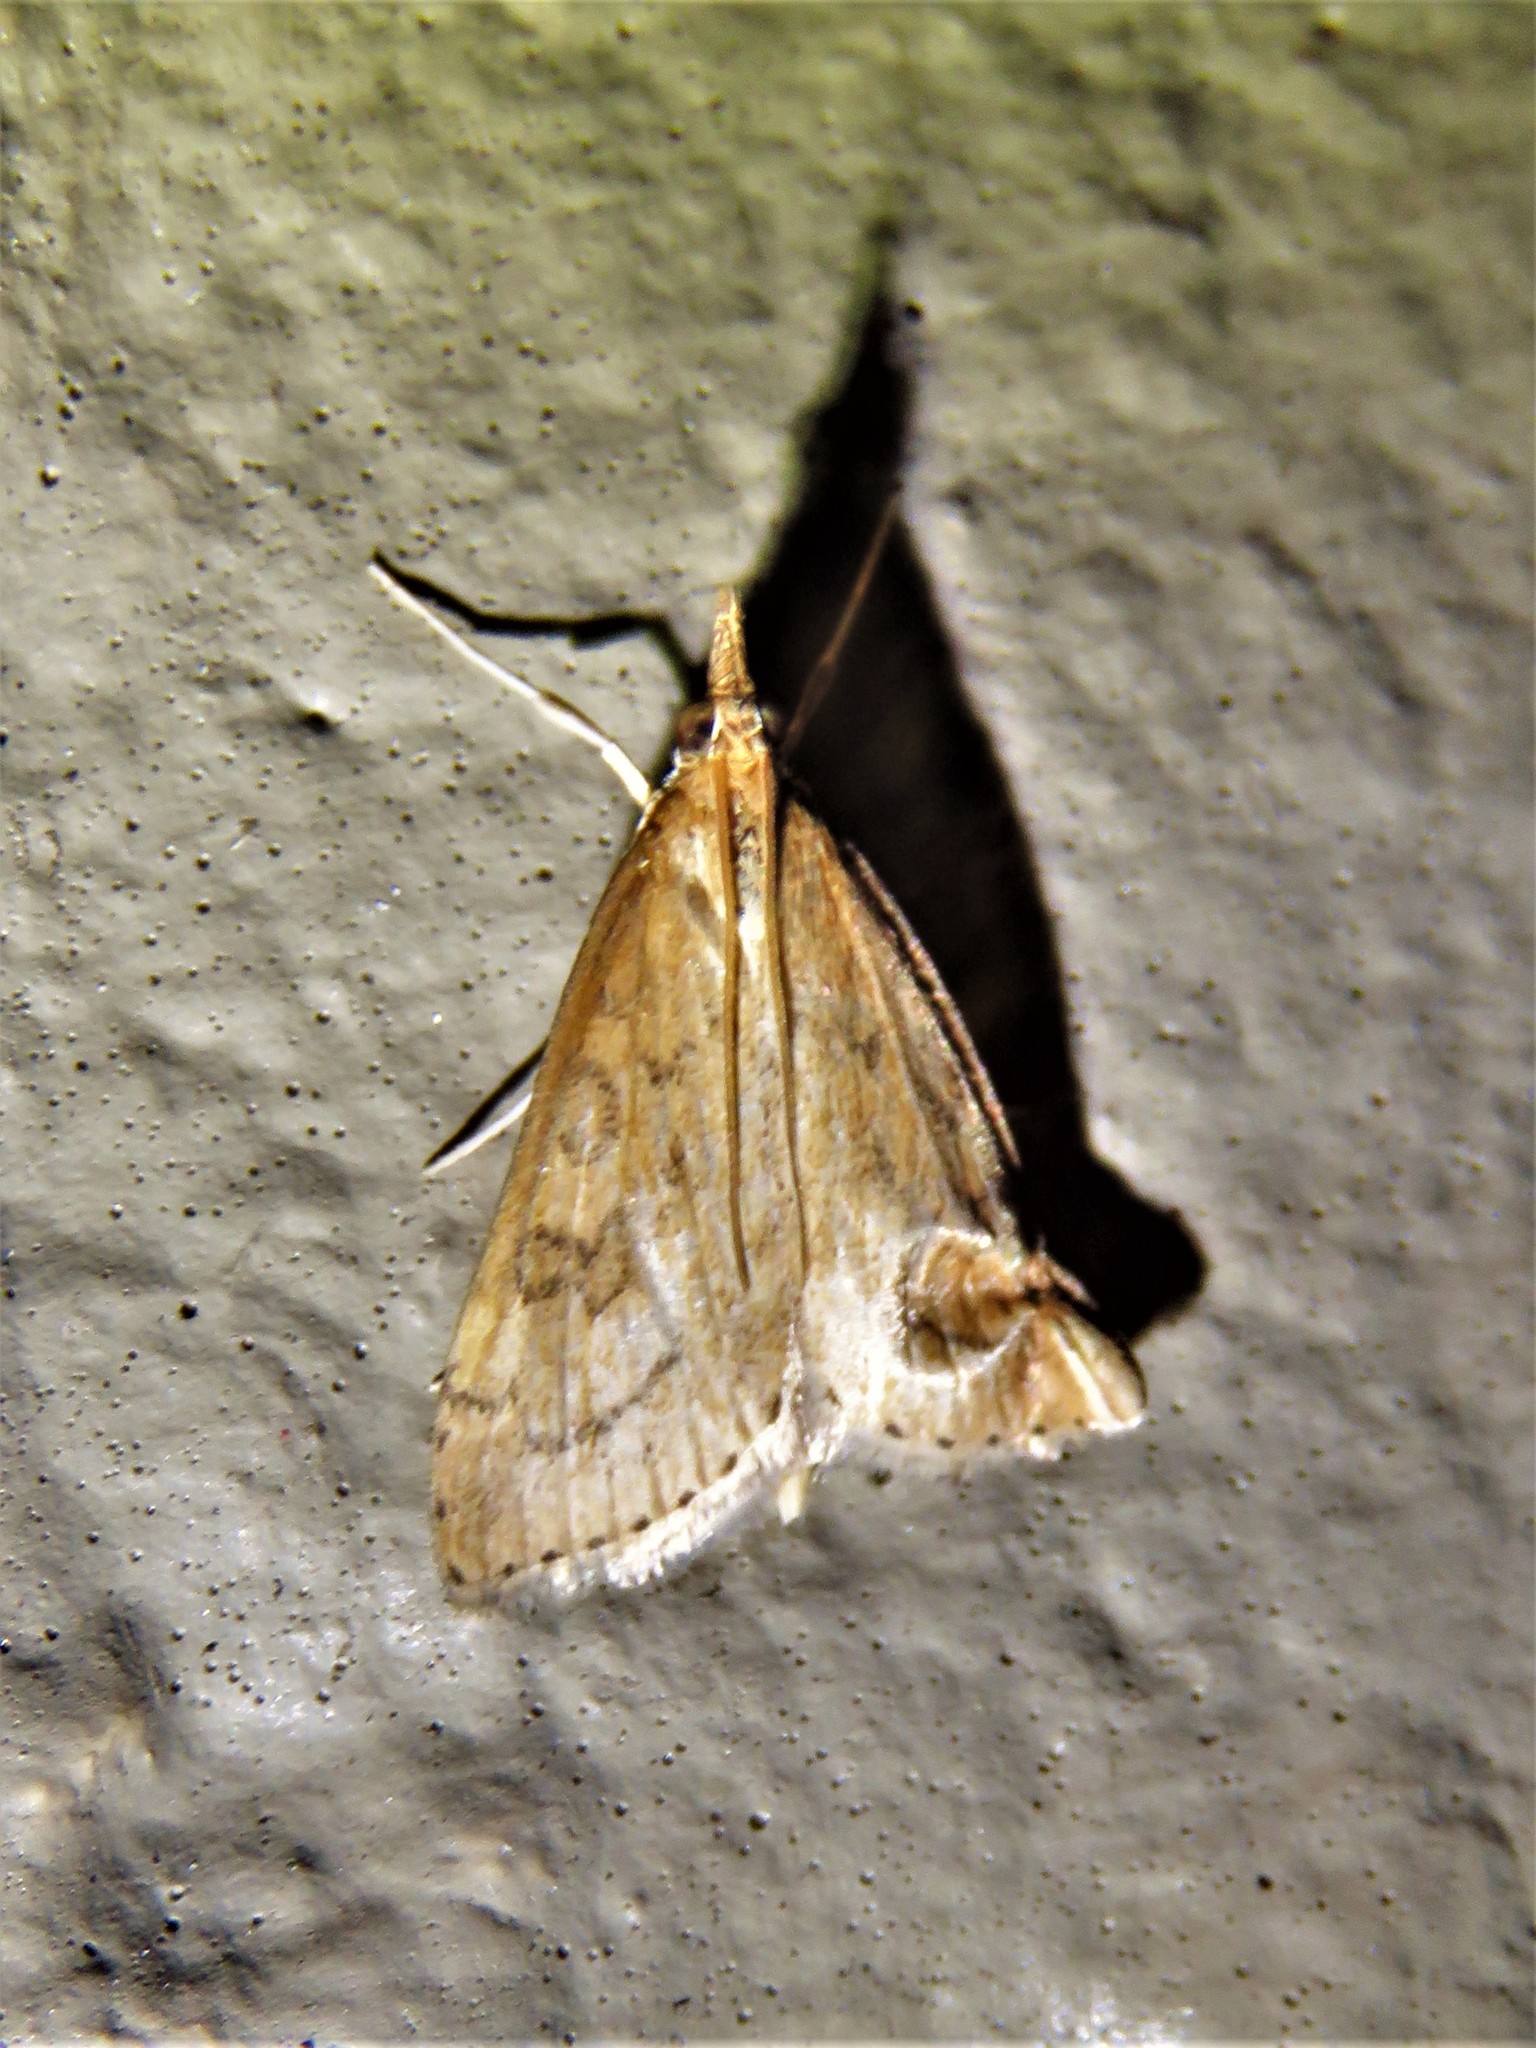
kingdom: Animalia
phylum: Arthropoda
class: Insecta
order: Lepidoptera
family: Crambidae
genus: Udea
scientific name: Udea rubigalis
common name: Celery leaftier moth
